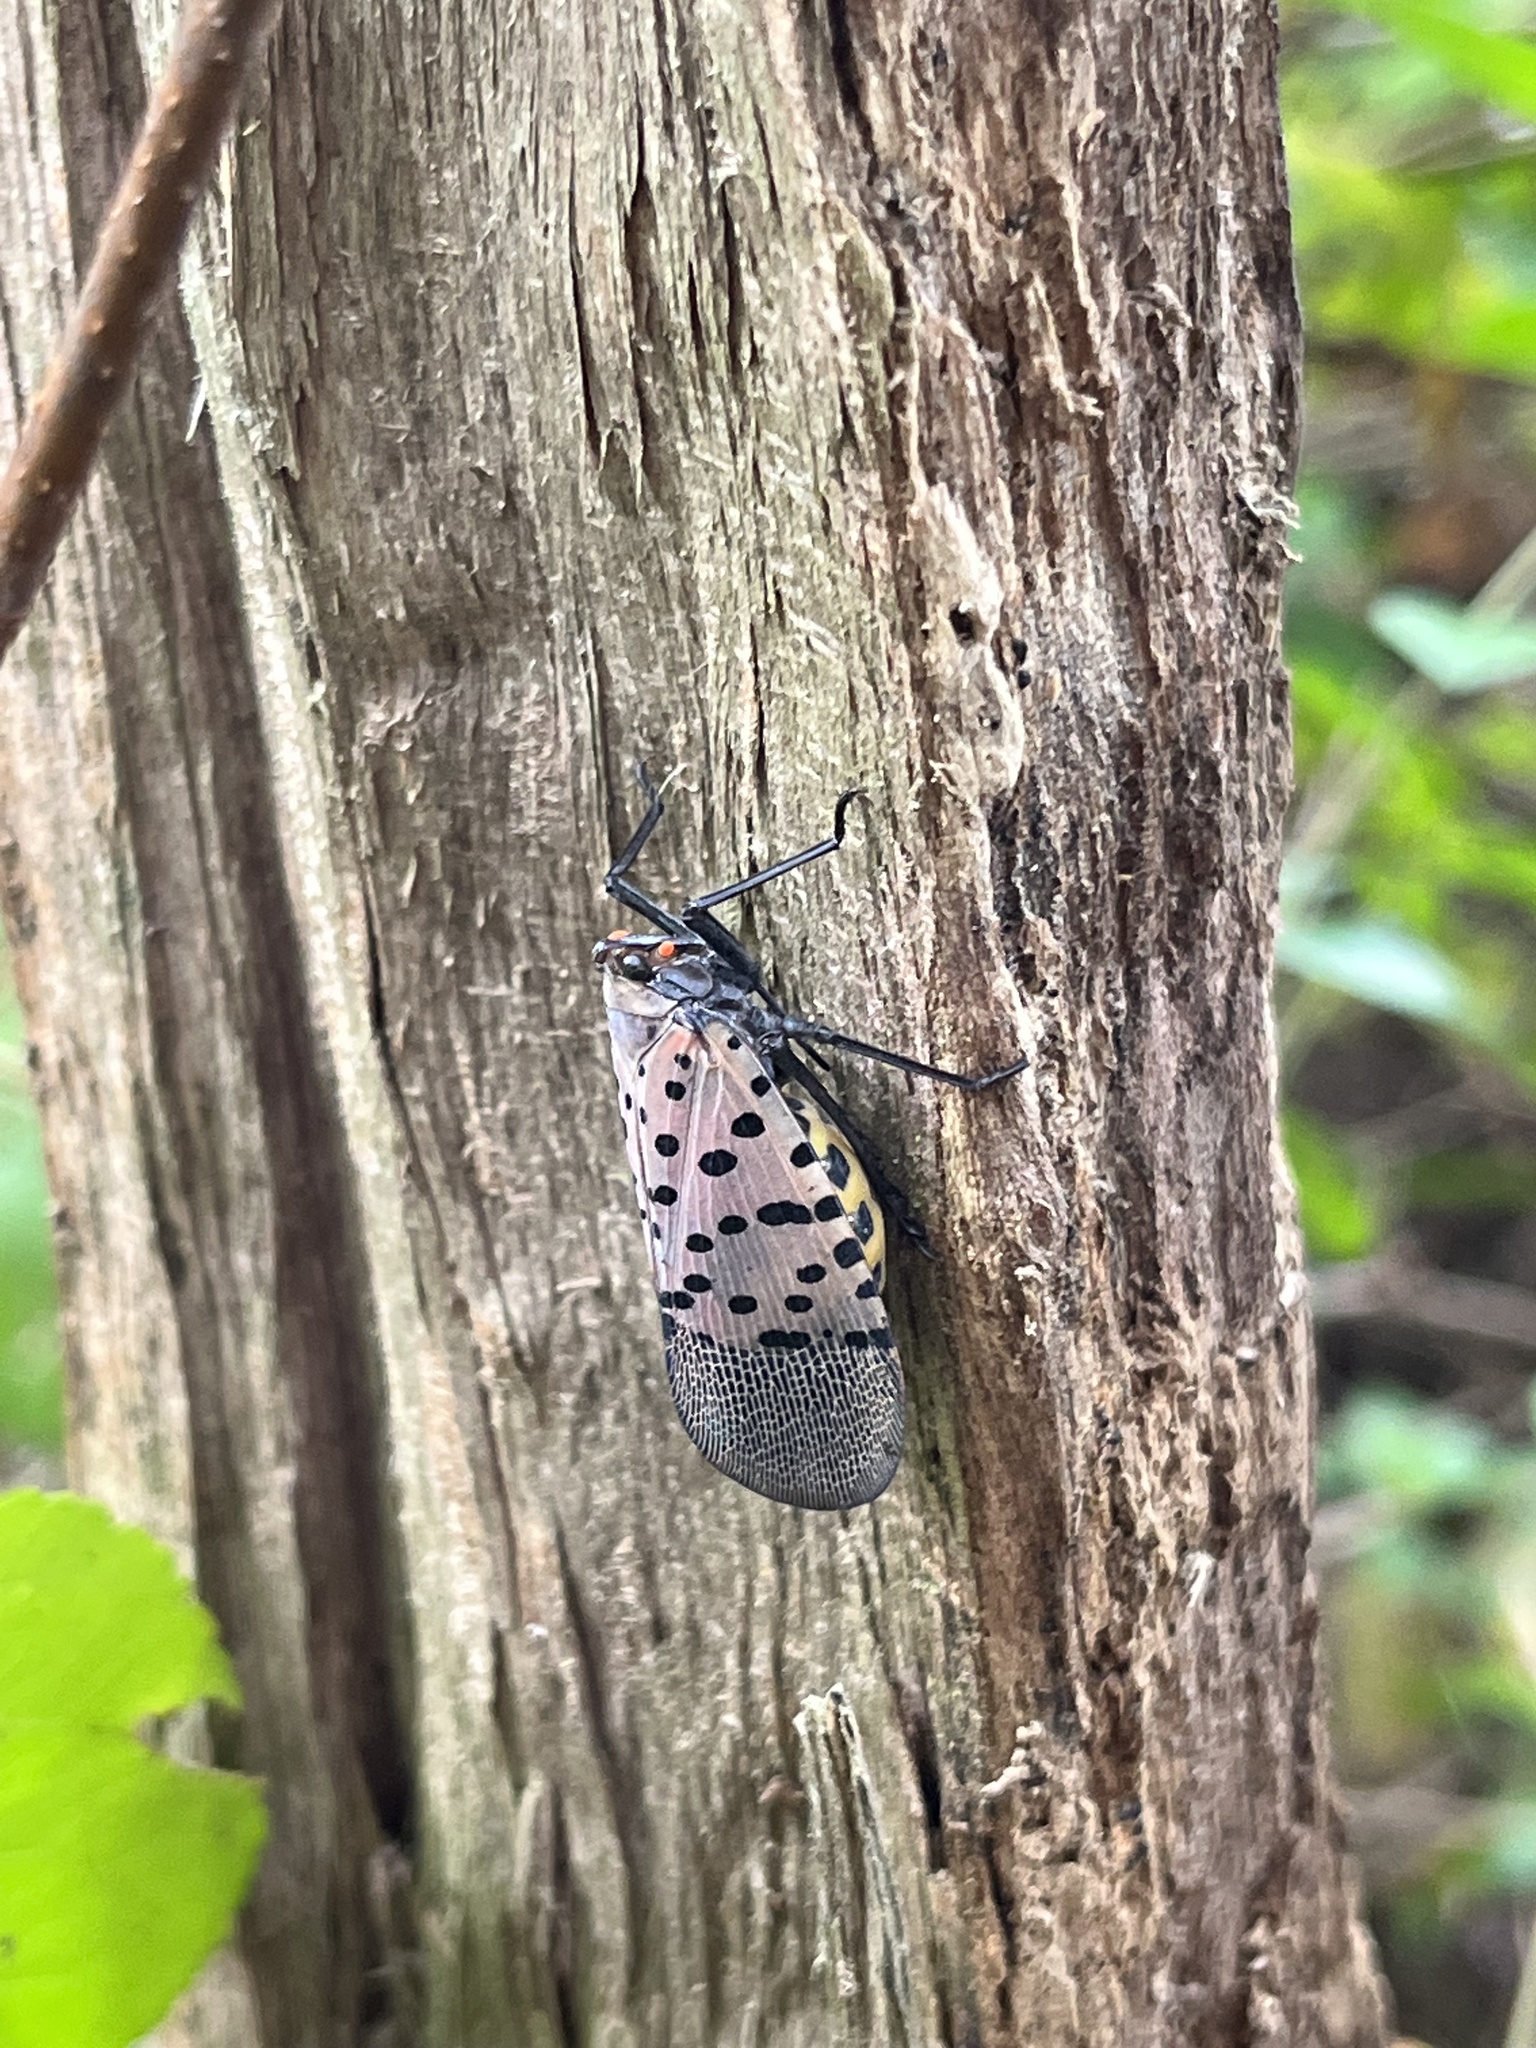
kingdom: Animalia
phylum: Arthropoda
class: Insecta
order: Hemiptera
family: Fulgoridae
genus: Lycorma
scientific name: Lycorma delicatula
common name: Spotted lanternfly
